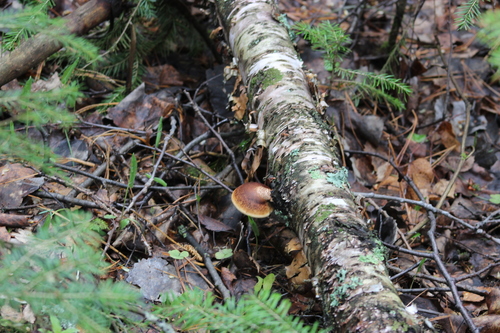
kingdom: Fungi
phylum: Basidiomycota
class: Agaricomycetes
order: Polyporales
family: Fomitopsidaceae
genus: Fomitopsis
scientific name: Fomitopsis betulina
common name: Birch polypore
